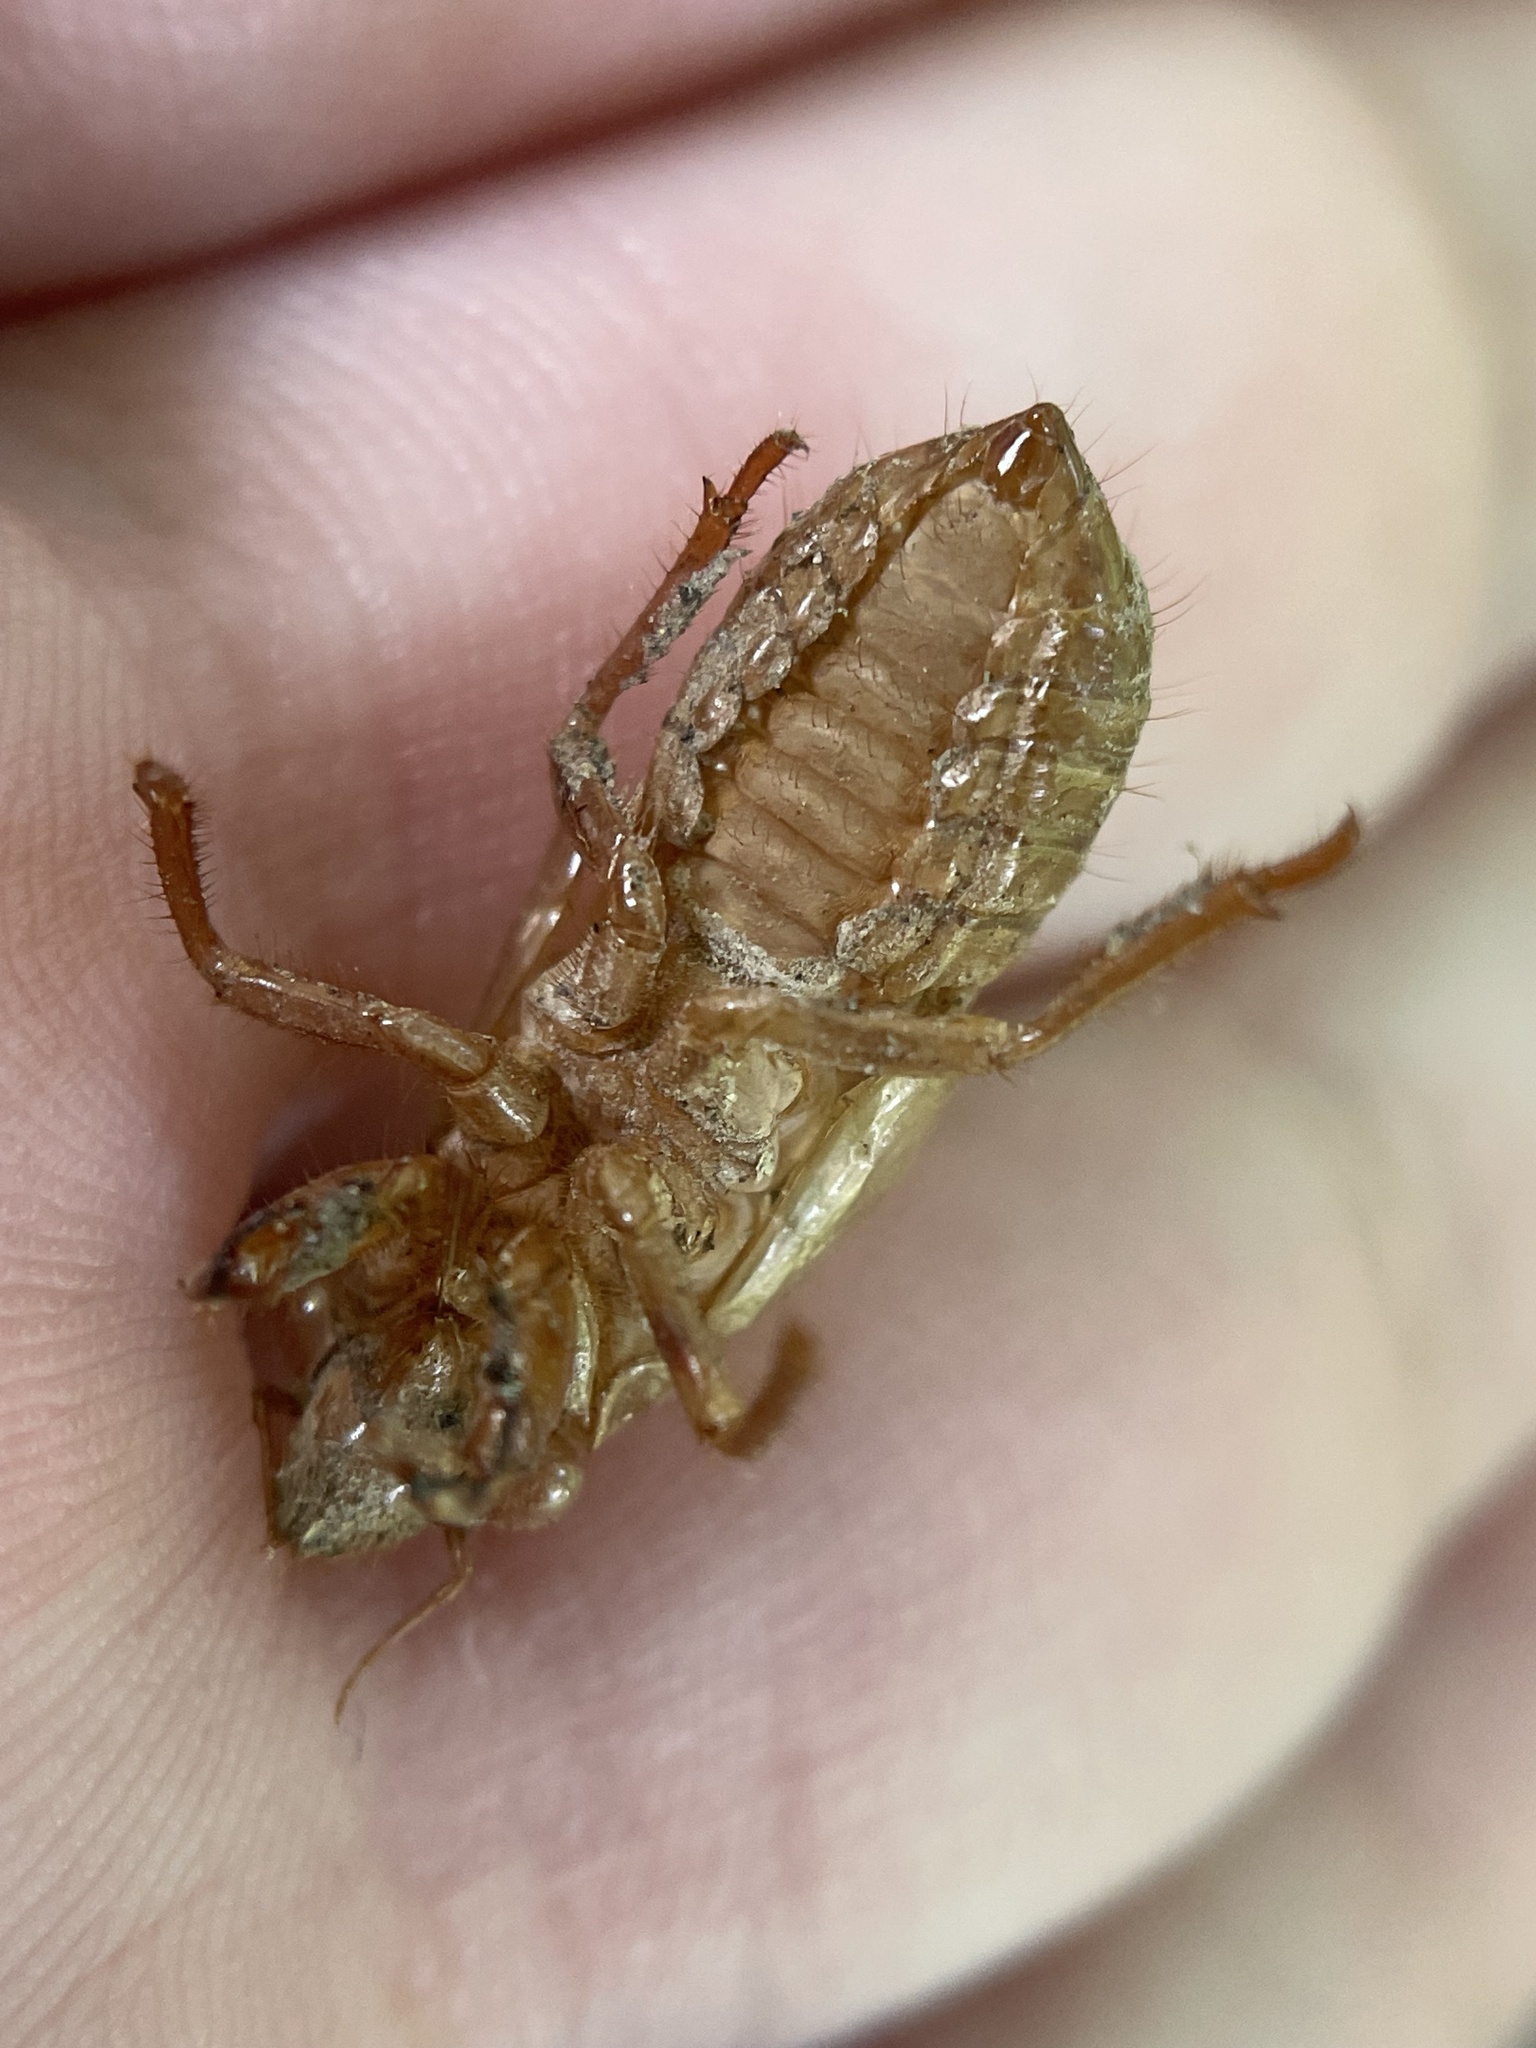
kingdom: Animalia
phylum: Arthropoda
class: Insecta
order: Hemiptera
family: Cicadidae
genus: Magicicada
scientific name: Magicicada
